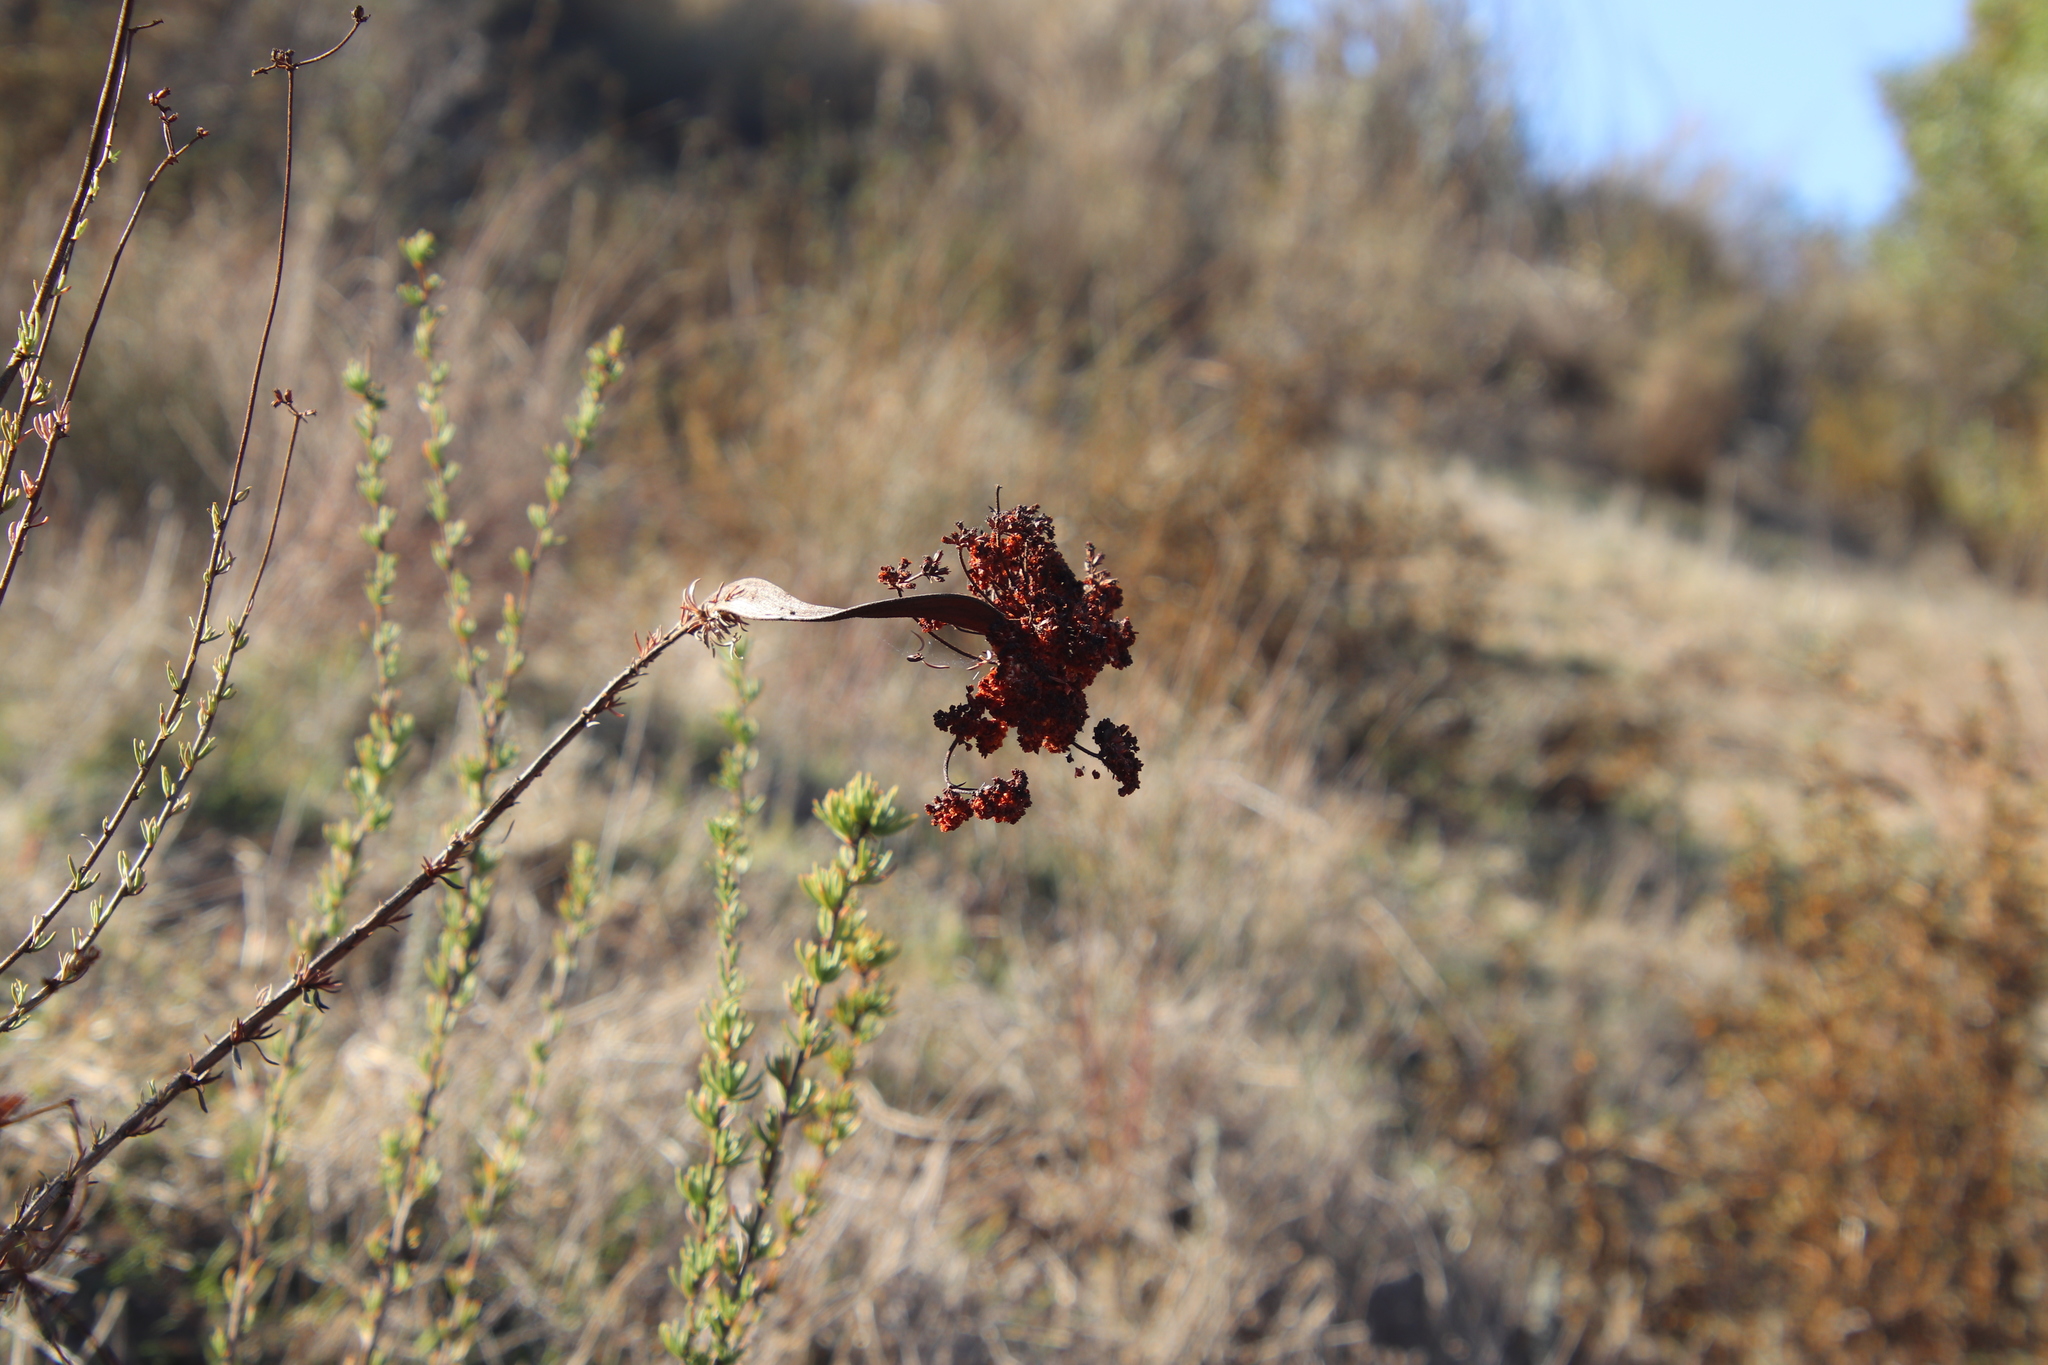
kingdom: Plantae
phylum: Tracheophyta
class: Magnoliopsida
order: Caryophyllales
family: Polygonaceae
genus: Eriogonum
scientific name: Eriogonum fasciculatum
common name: California wild buckwheat
